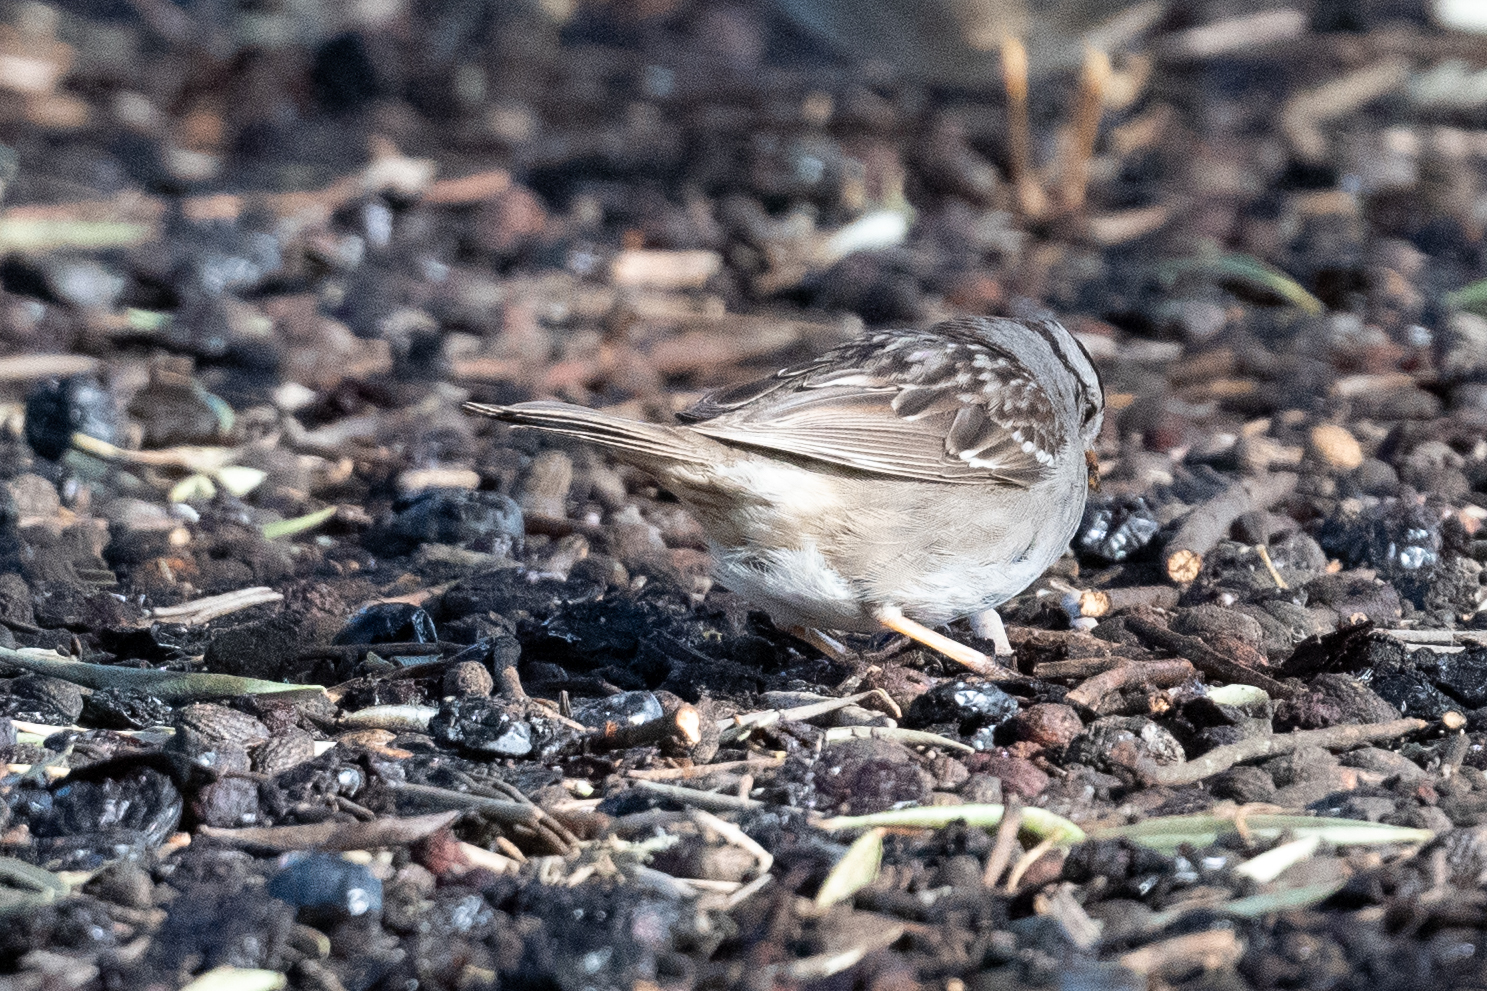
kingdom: Animalia
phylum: Chordata
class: Aves
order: Passeriformes
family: Passerellidae
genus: Zonotrichia
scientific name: Zonotrichia leucophrys
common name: White-crowned sparrow
